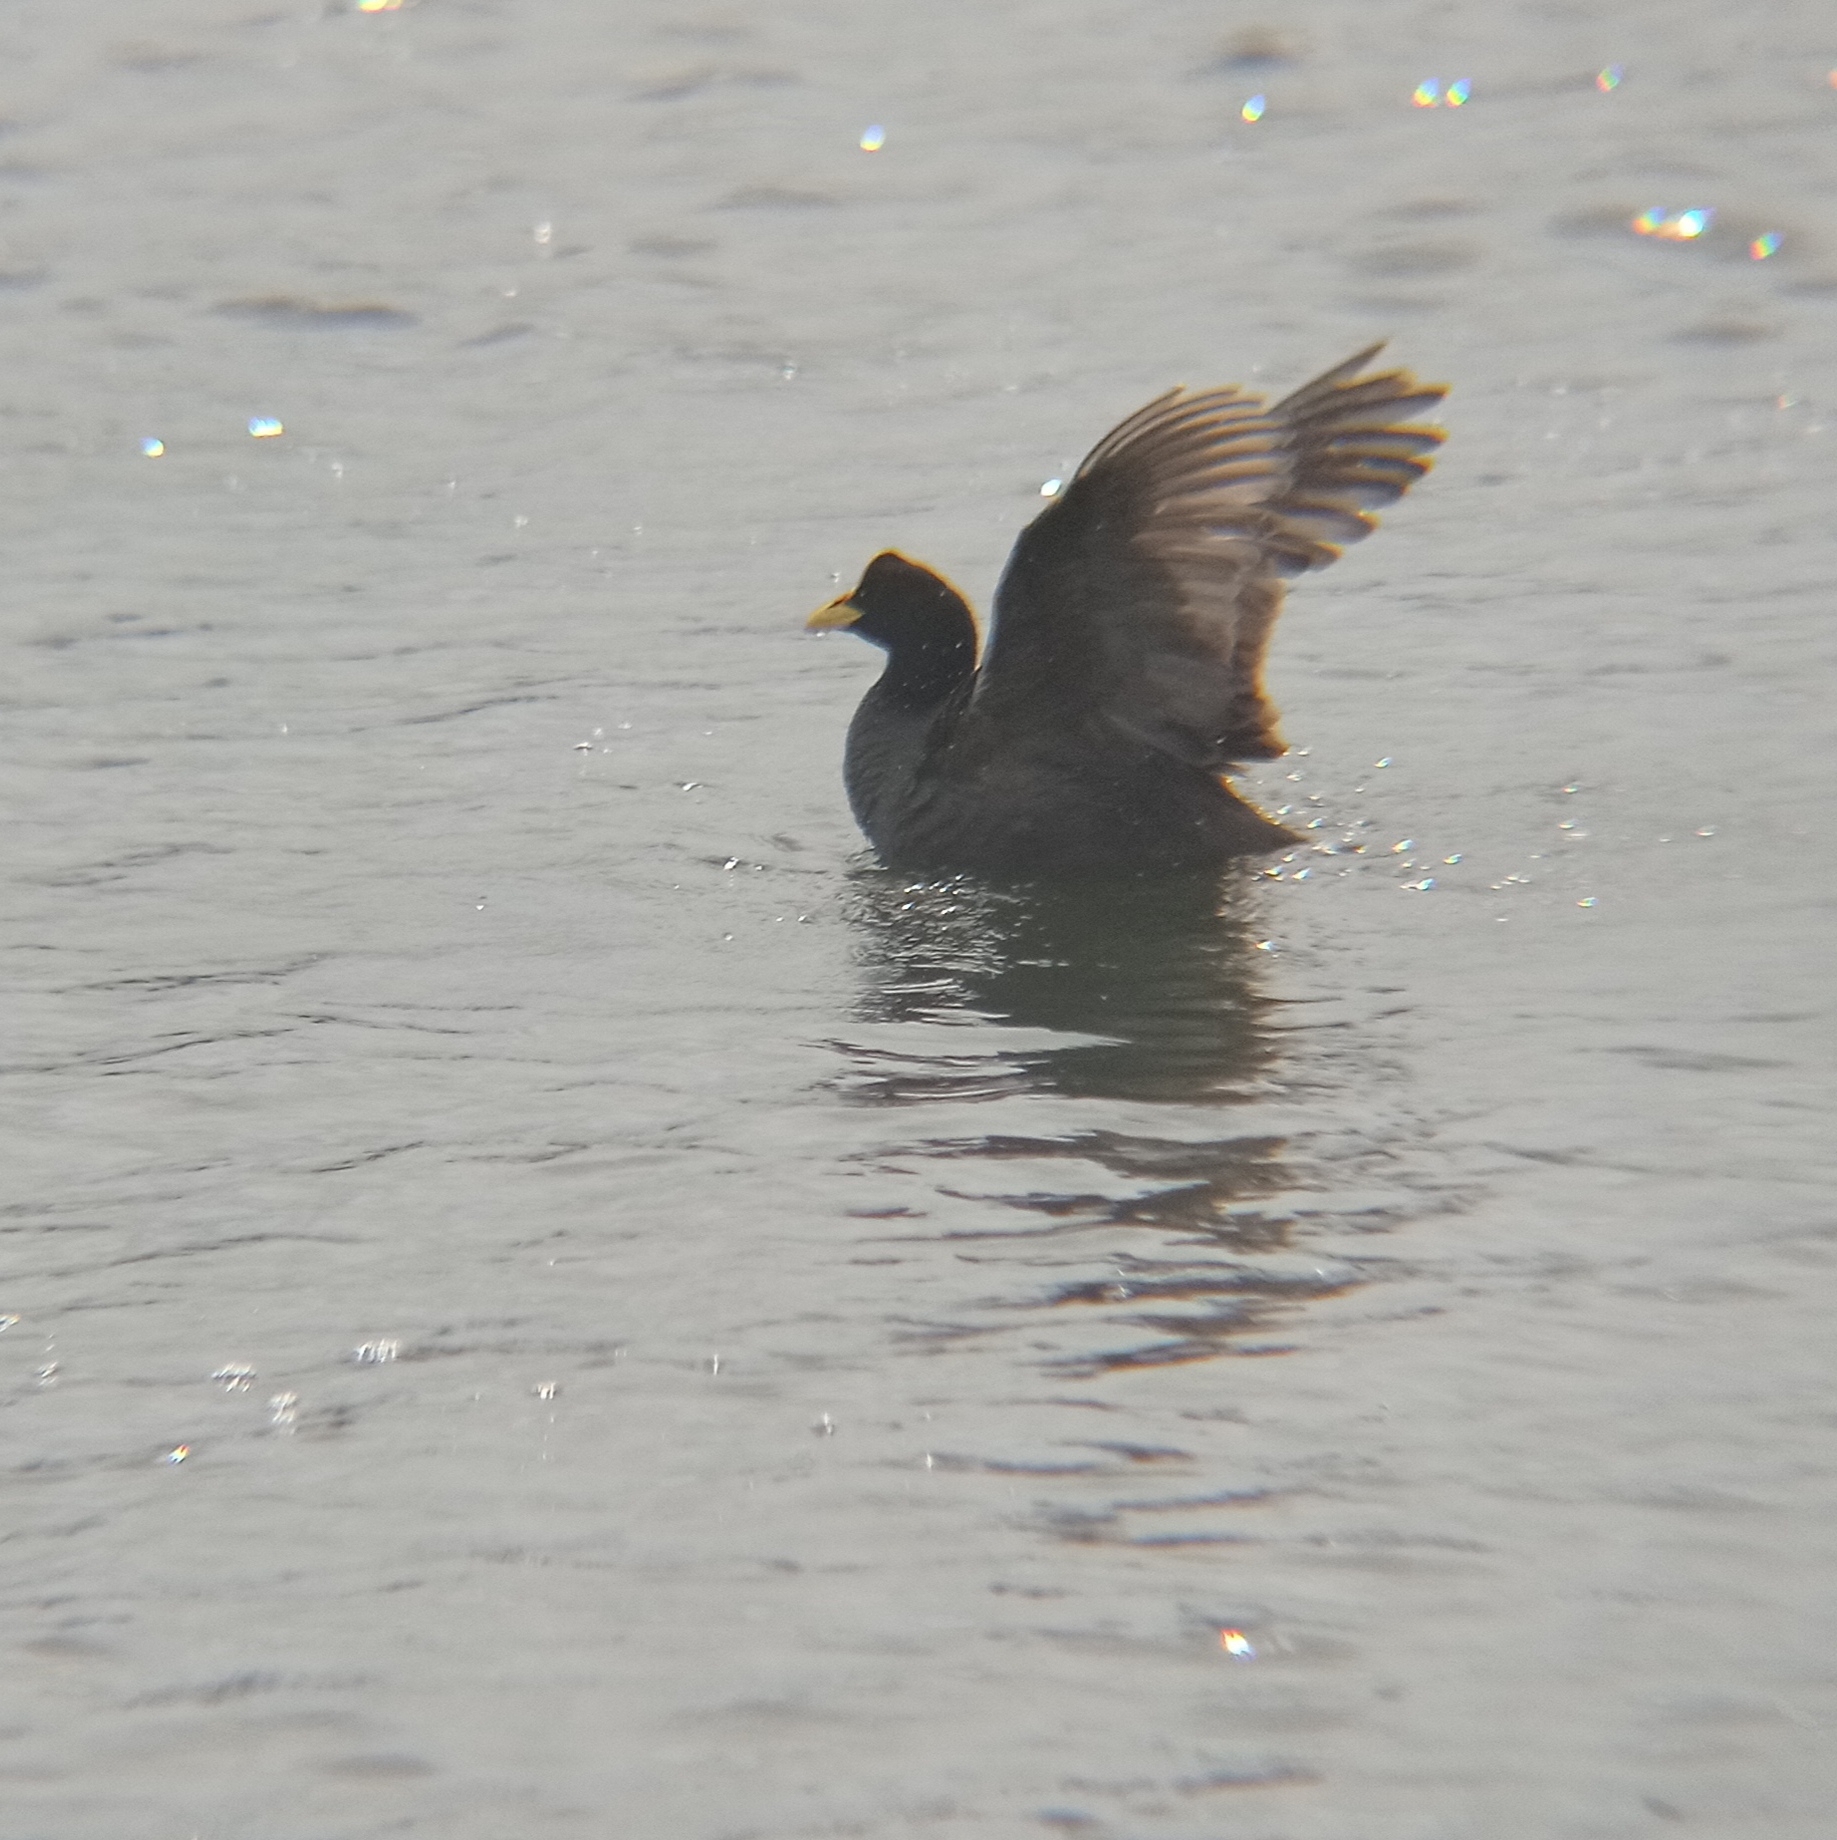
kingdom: Animalia
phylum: Chordata
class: Aves
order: Gruiformes
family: Rallidae
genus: Fulica
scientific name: Fulica armillata
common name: Red-gartered coot
